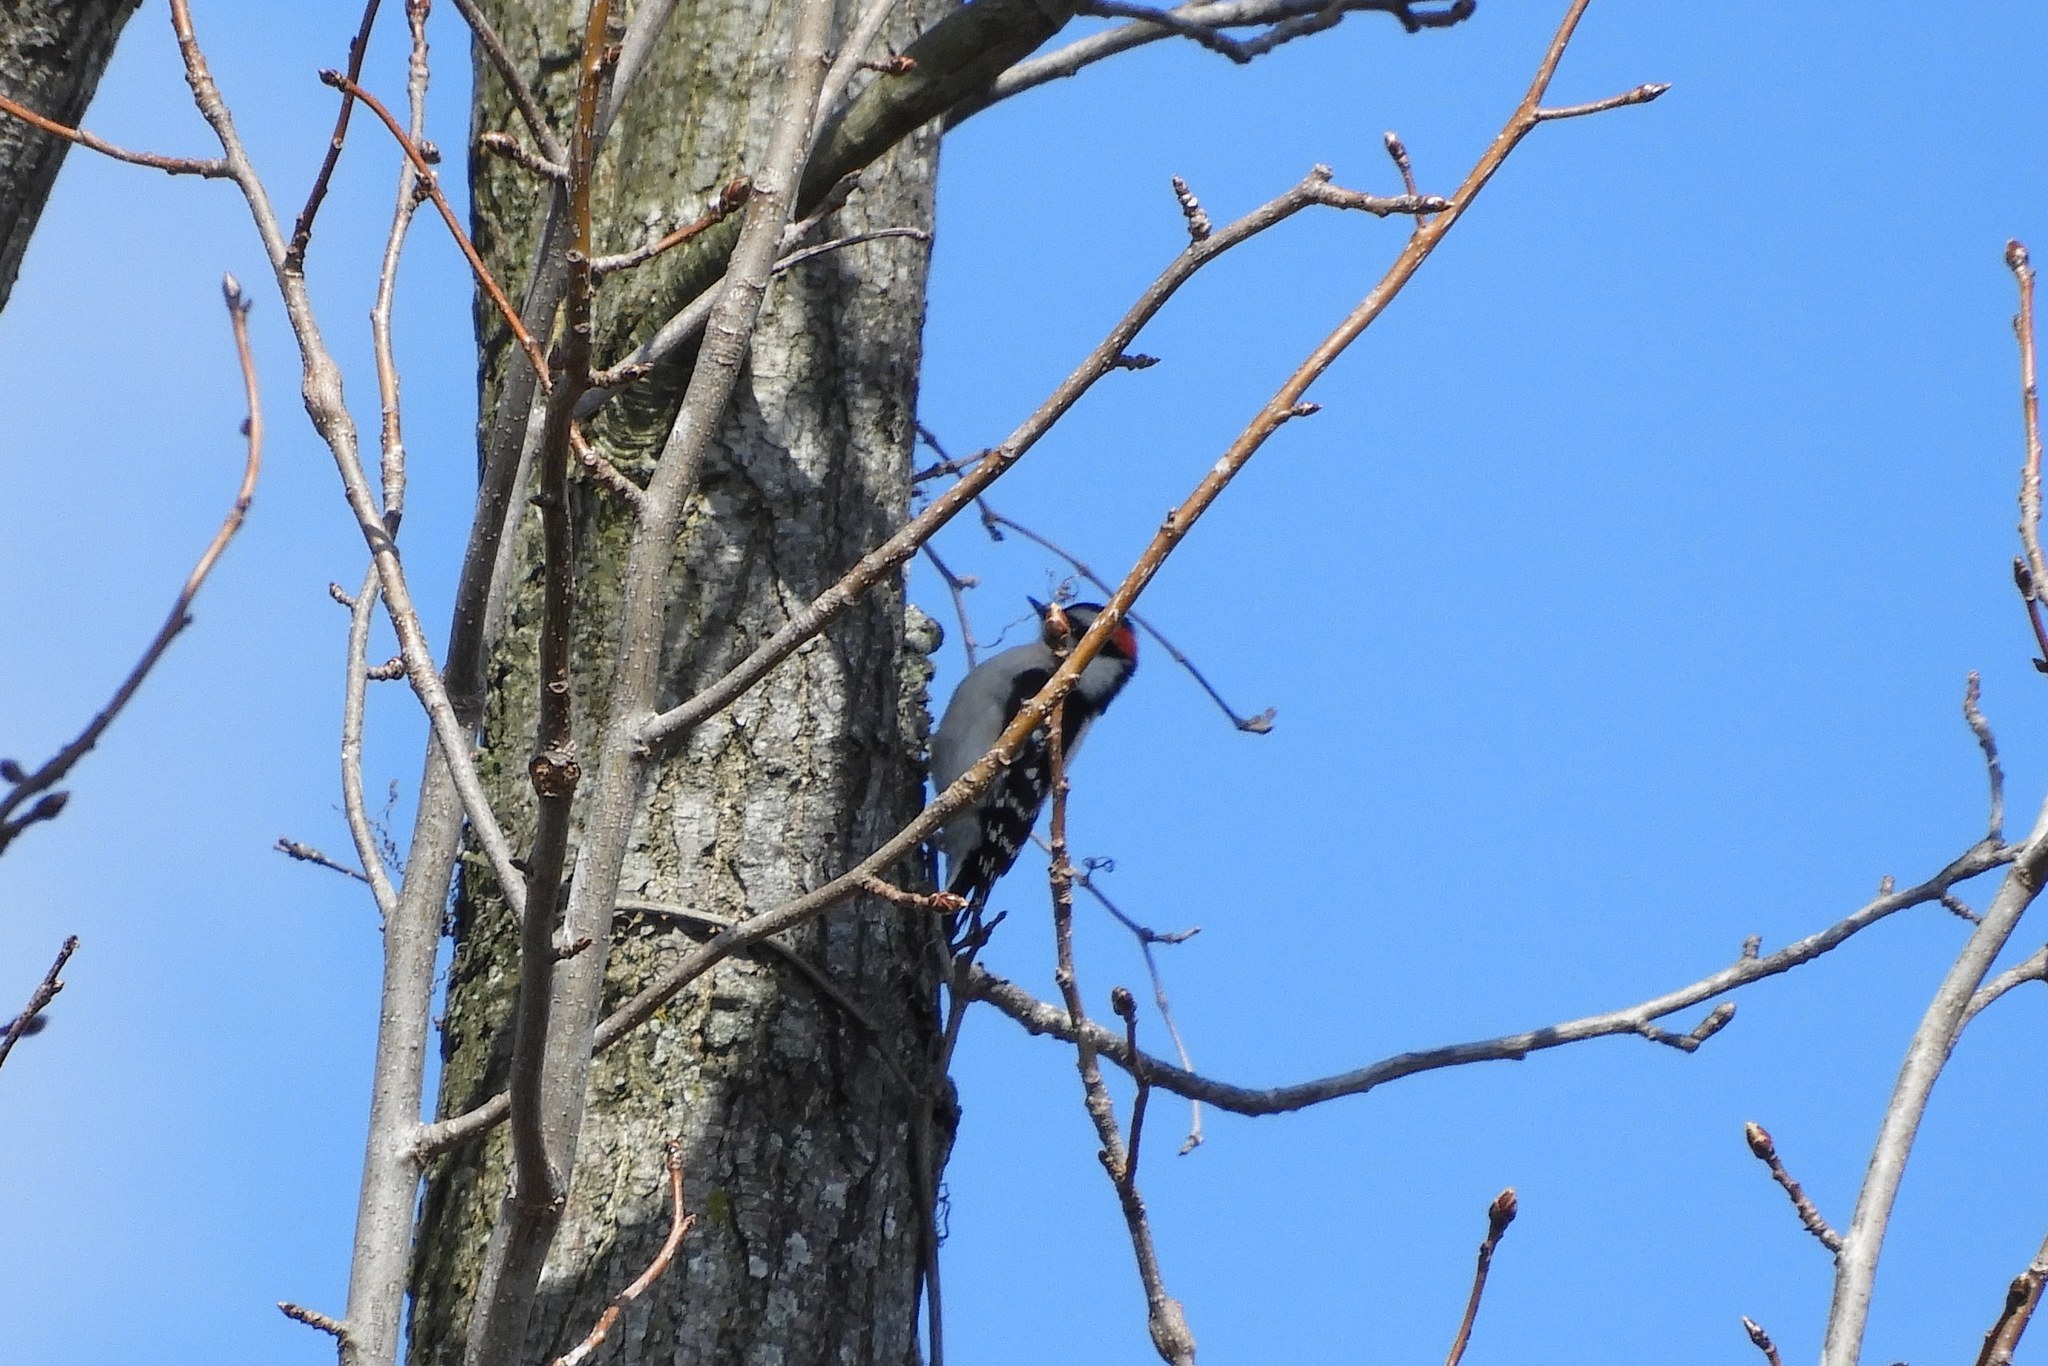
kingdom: Animalia
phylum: Chordata
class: Aves
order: Piciformes
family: Picidae
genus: Dryobates
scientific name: Dryobates pubescens
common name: Downy woodpecker
